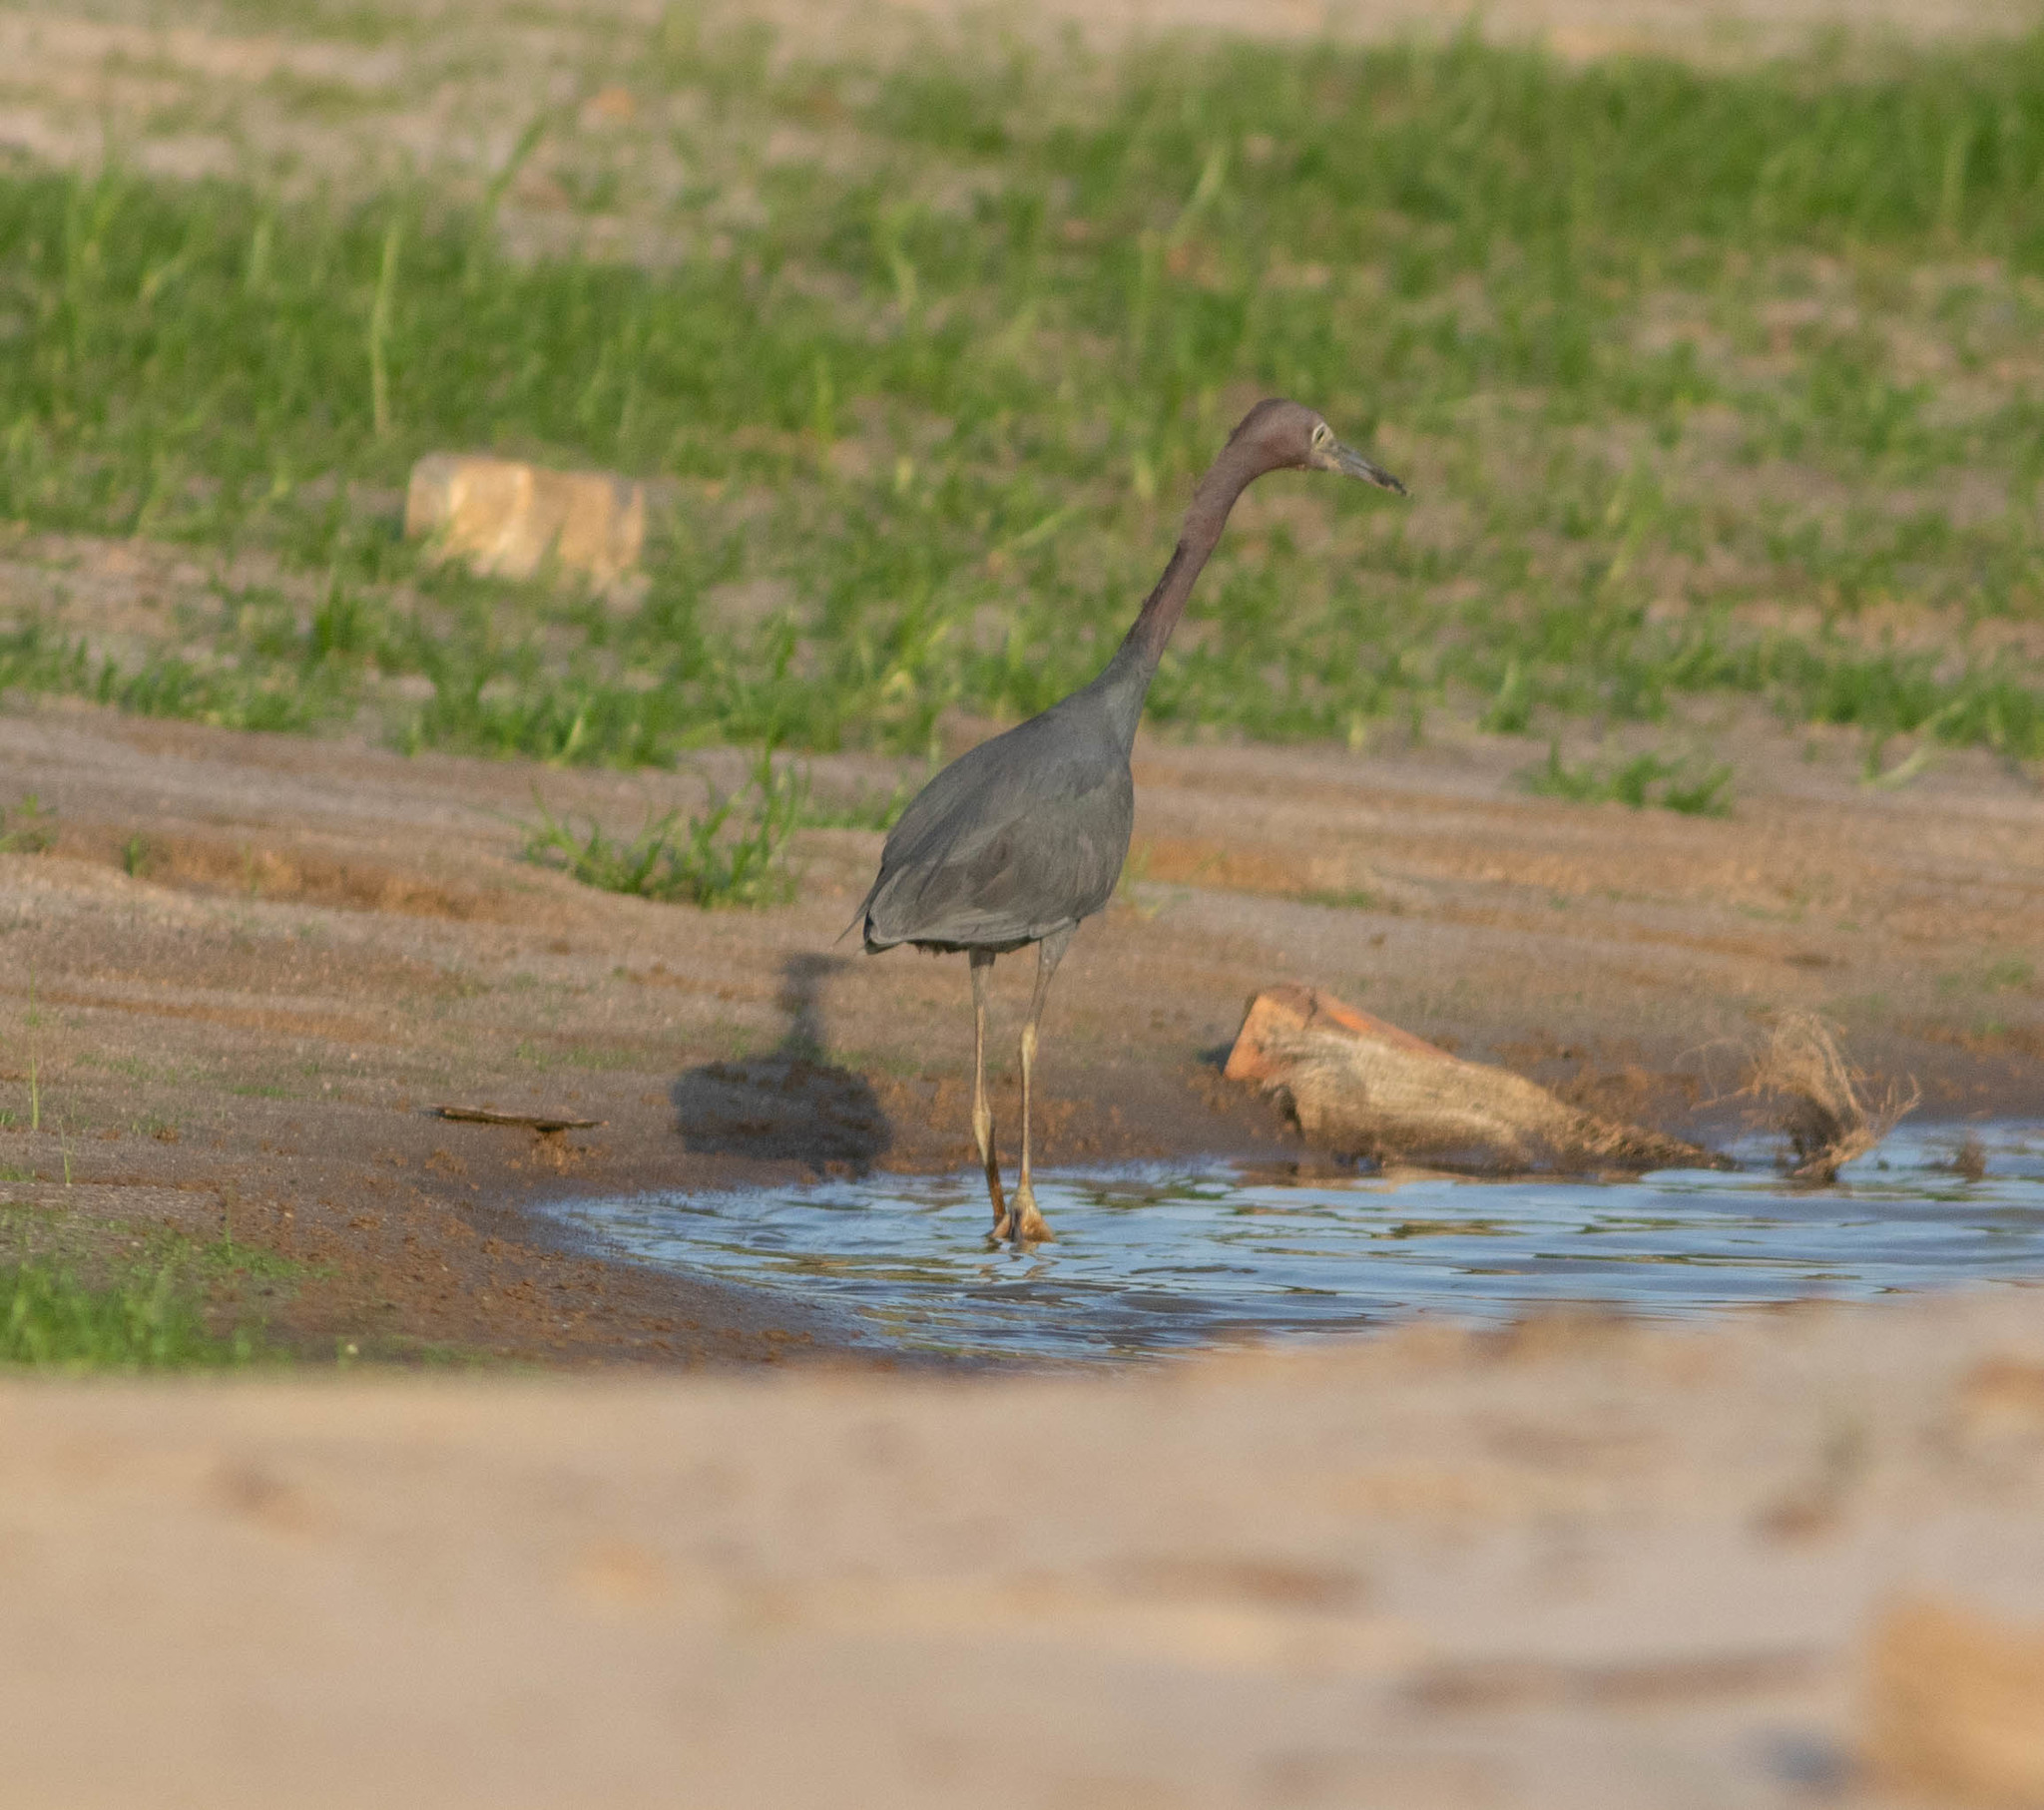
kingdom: Animalia
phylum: Chordata
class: Aves
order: Pelecaniformes
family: Ardeidae
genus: Egretta
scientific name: Egretta caerulea
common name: Little blue heron
